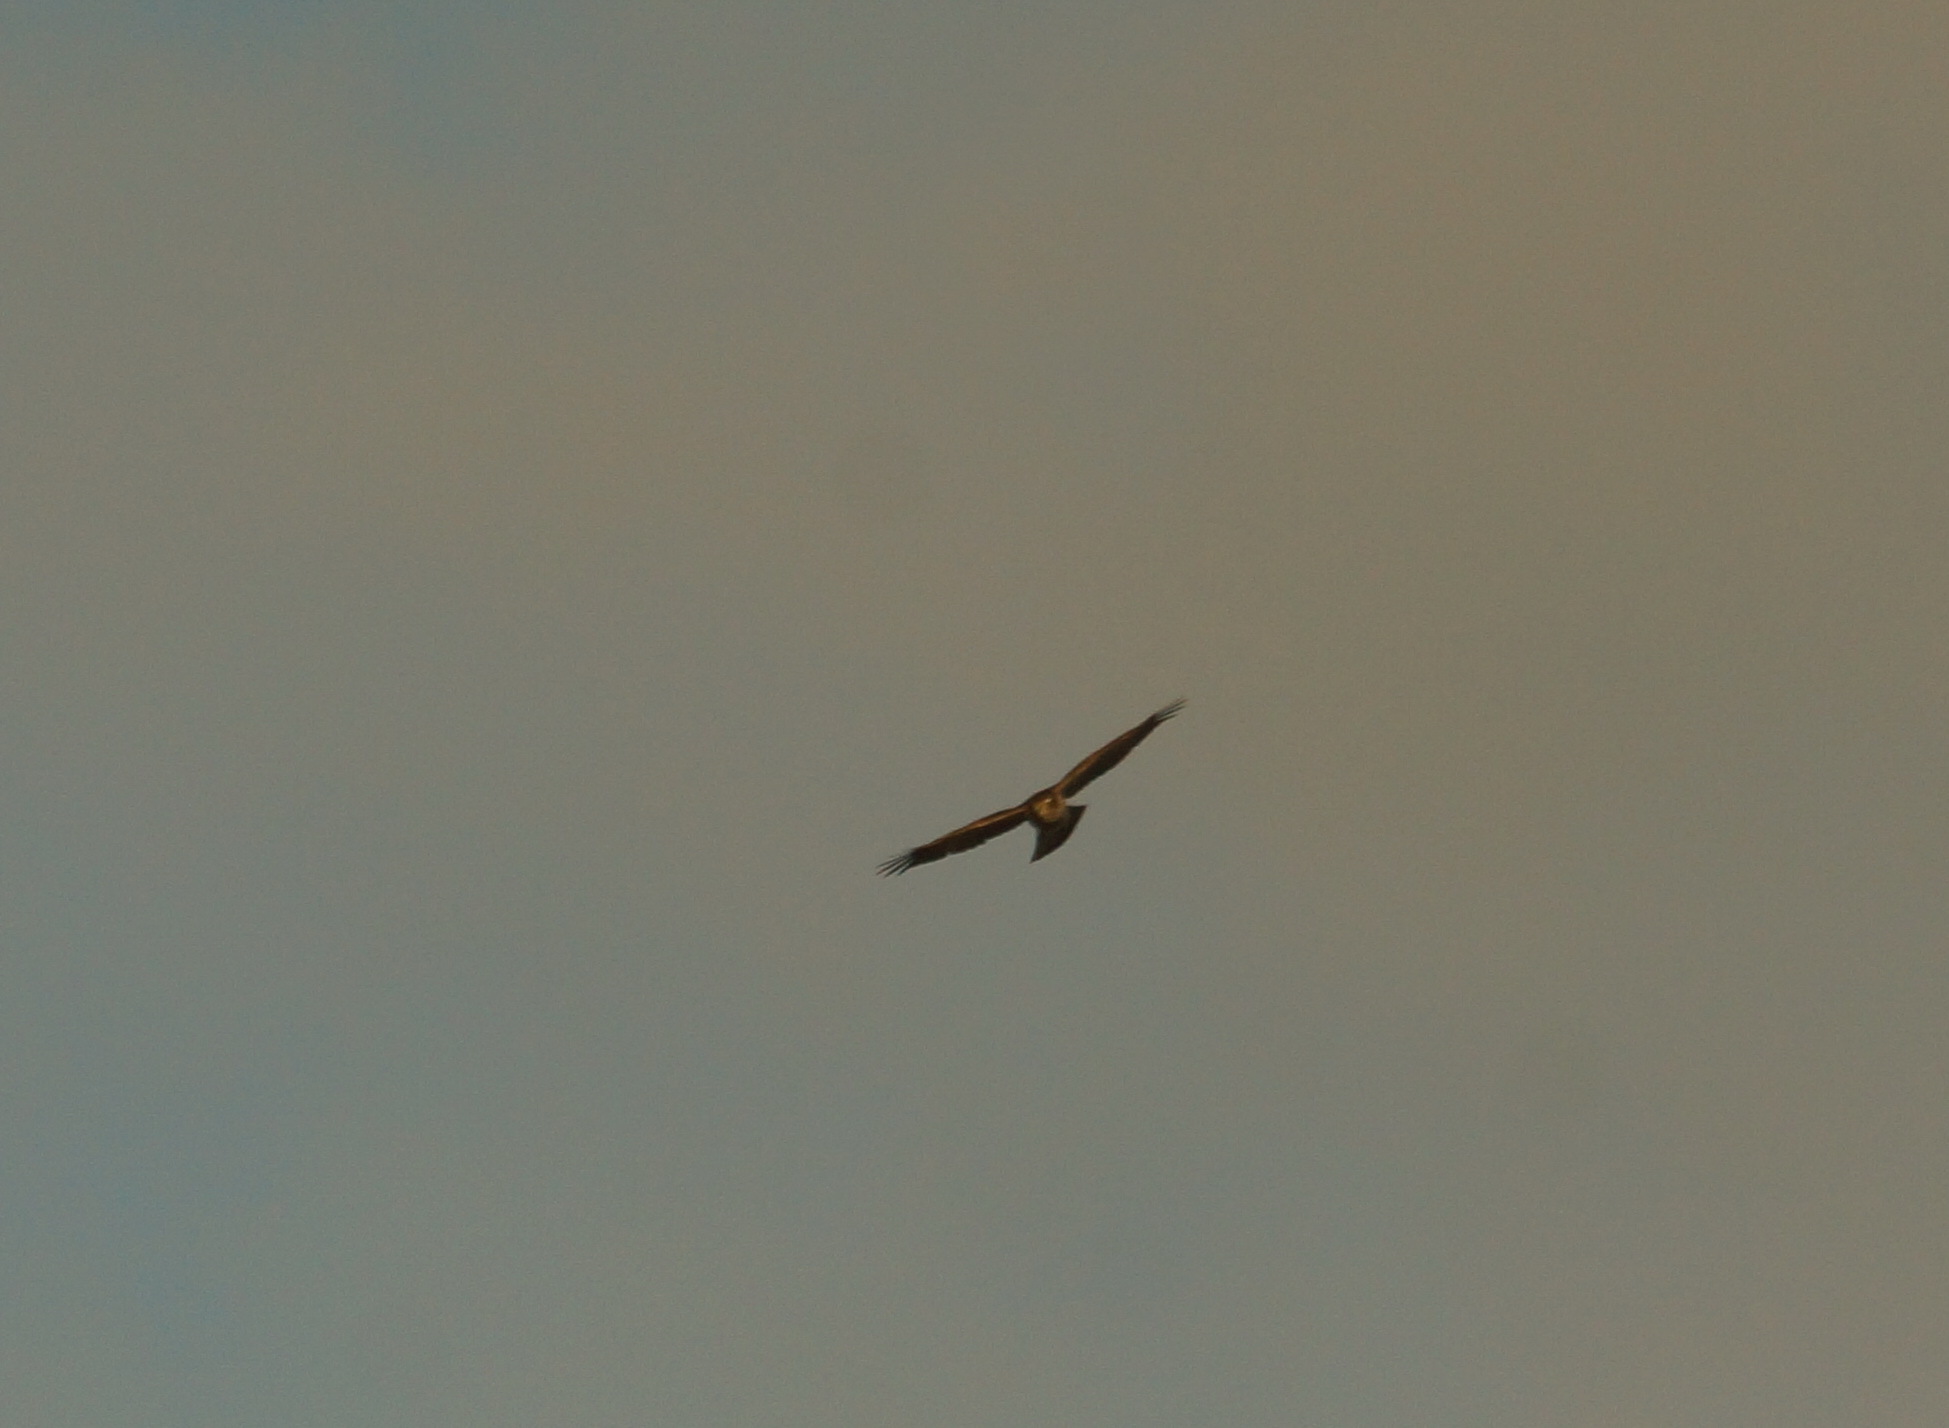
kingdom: Animalia
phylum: Chordata
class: Aves
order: Accipitriformes
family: Accipitridae
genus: Accipiter
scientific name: Accipiter nisus
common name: Eurasian sparrowhawk
